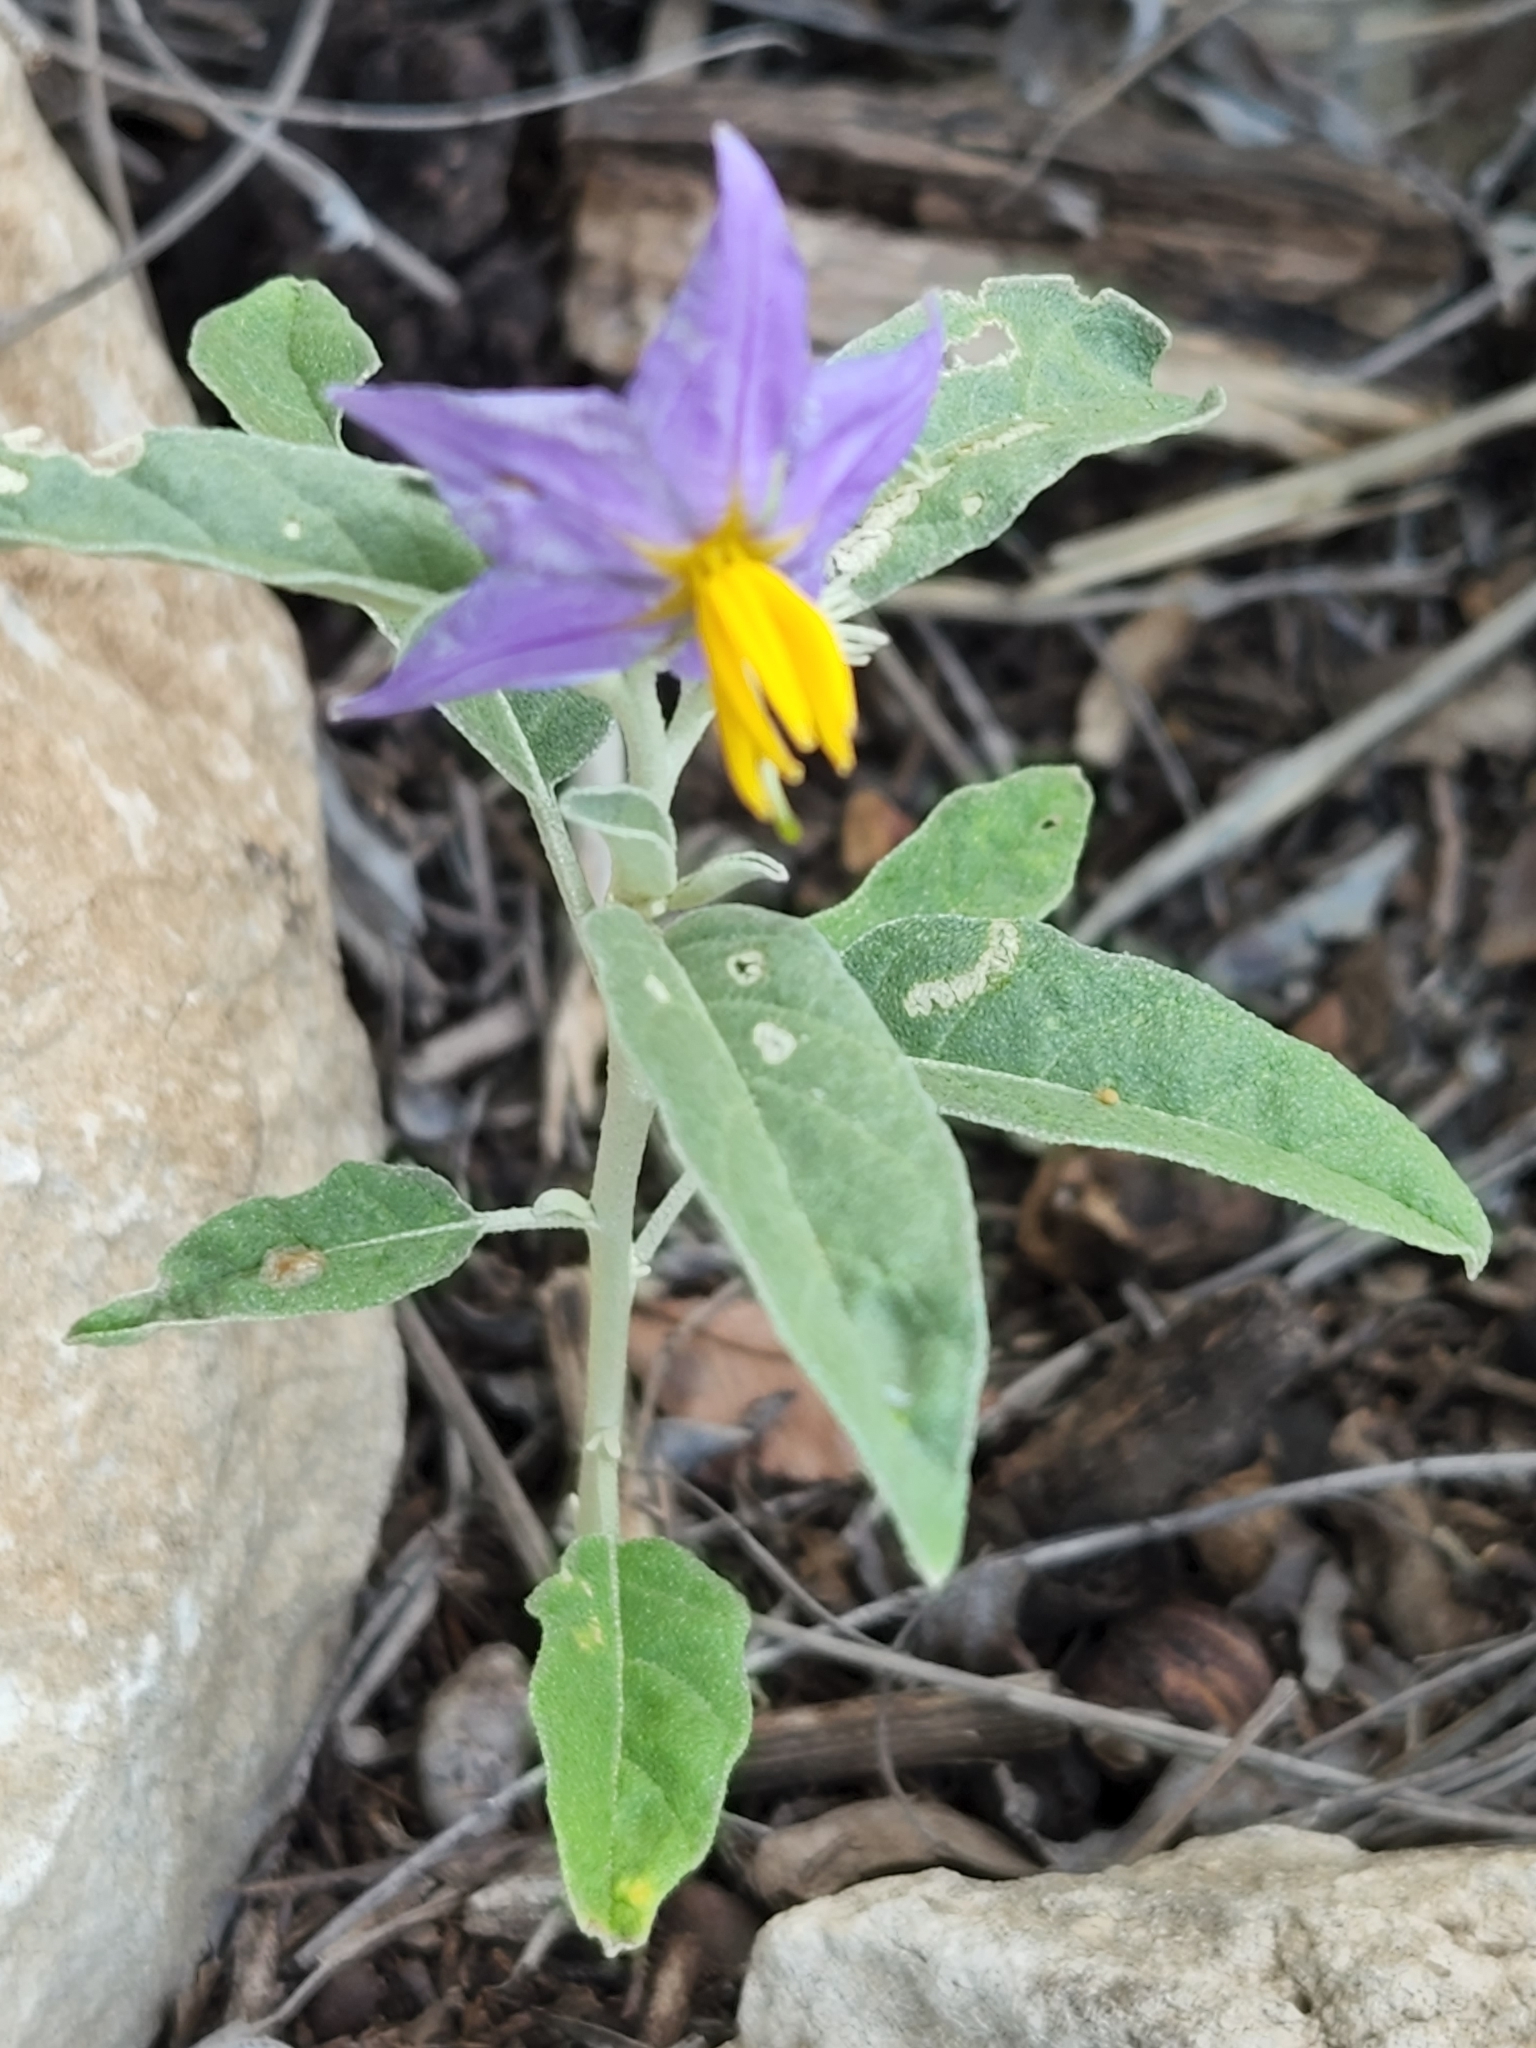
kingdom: Plantae
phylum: Tracheophyta
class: Magnoliopsida
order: Solanales
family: Solanaceae
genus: Solanum
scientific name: Solanum elaeagnifolium
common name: Silverleaf nightshade
